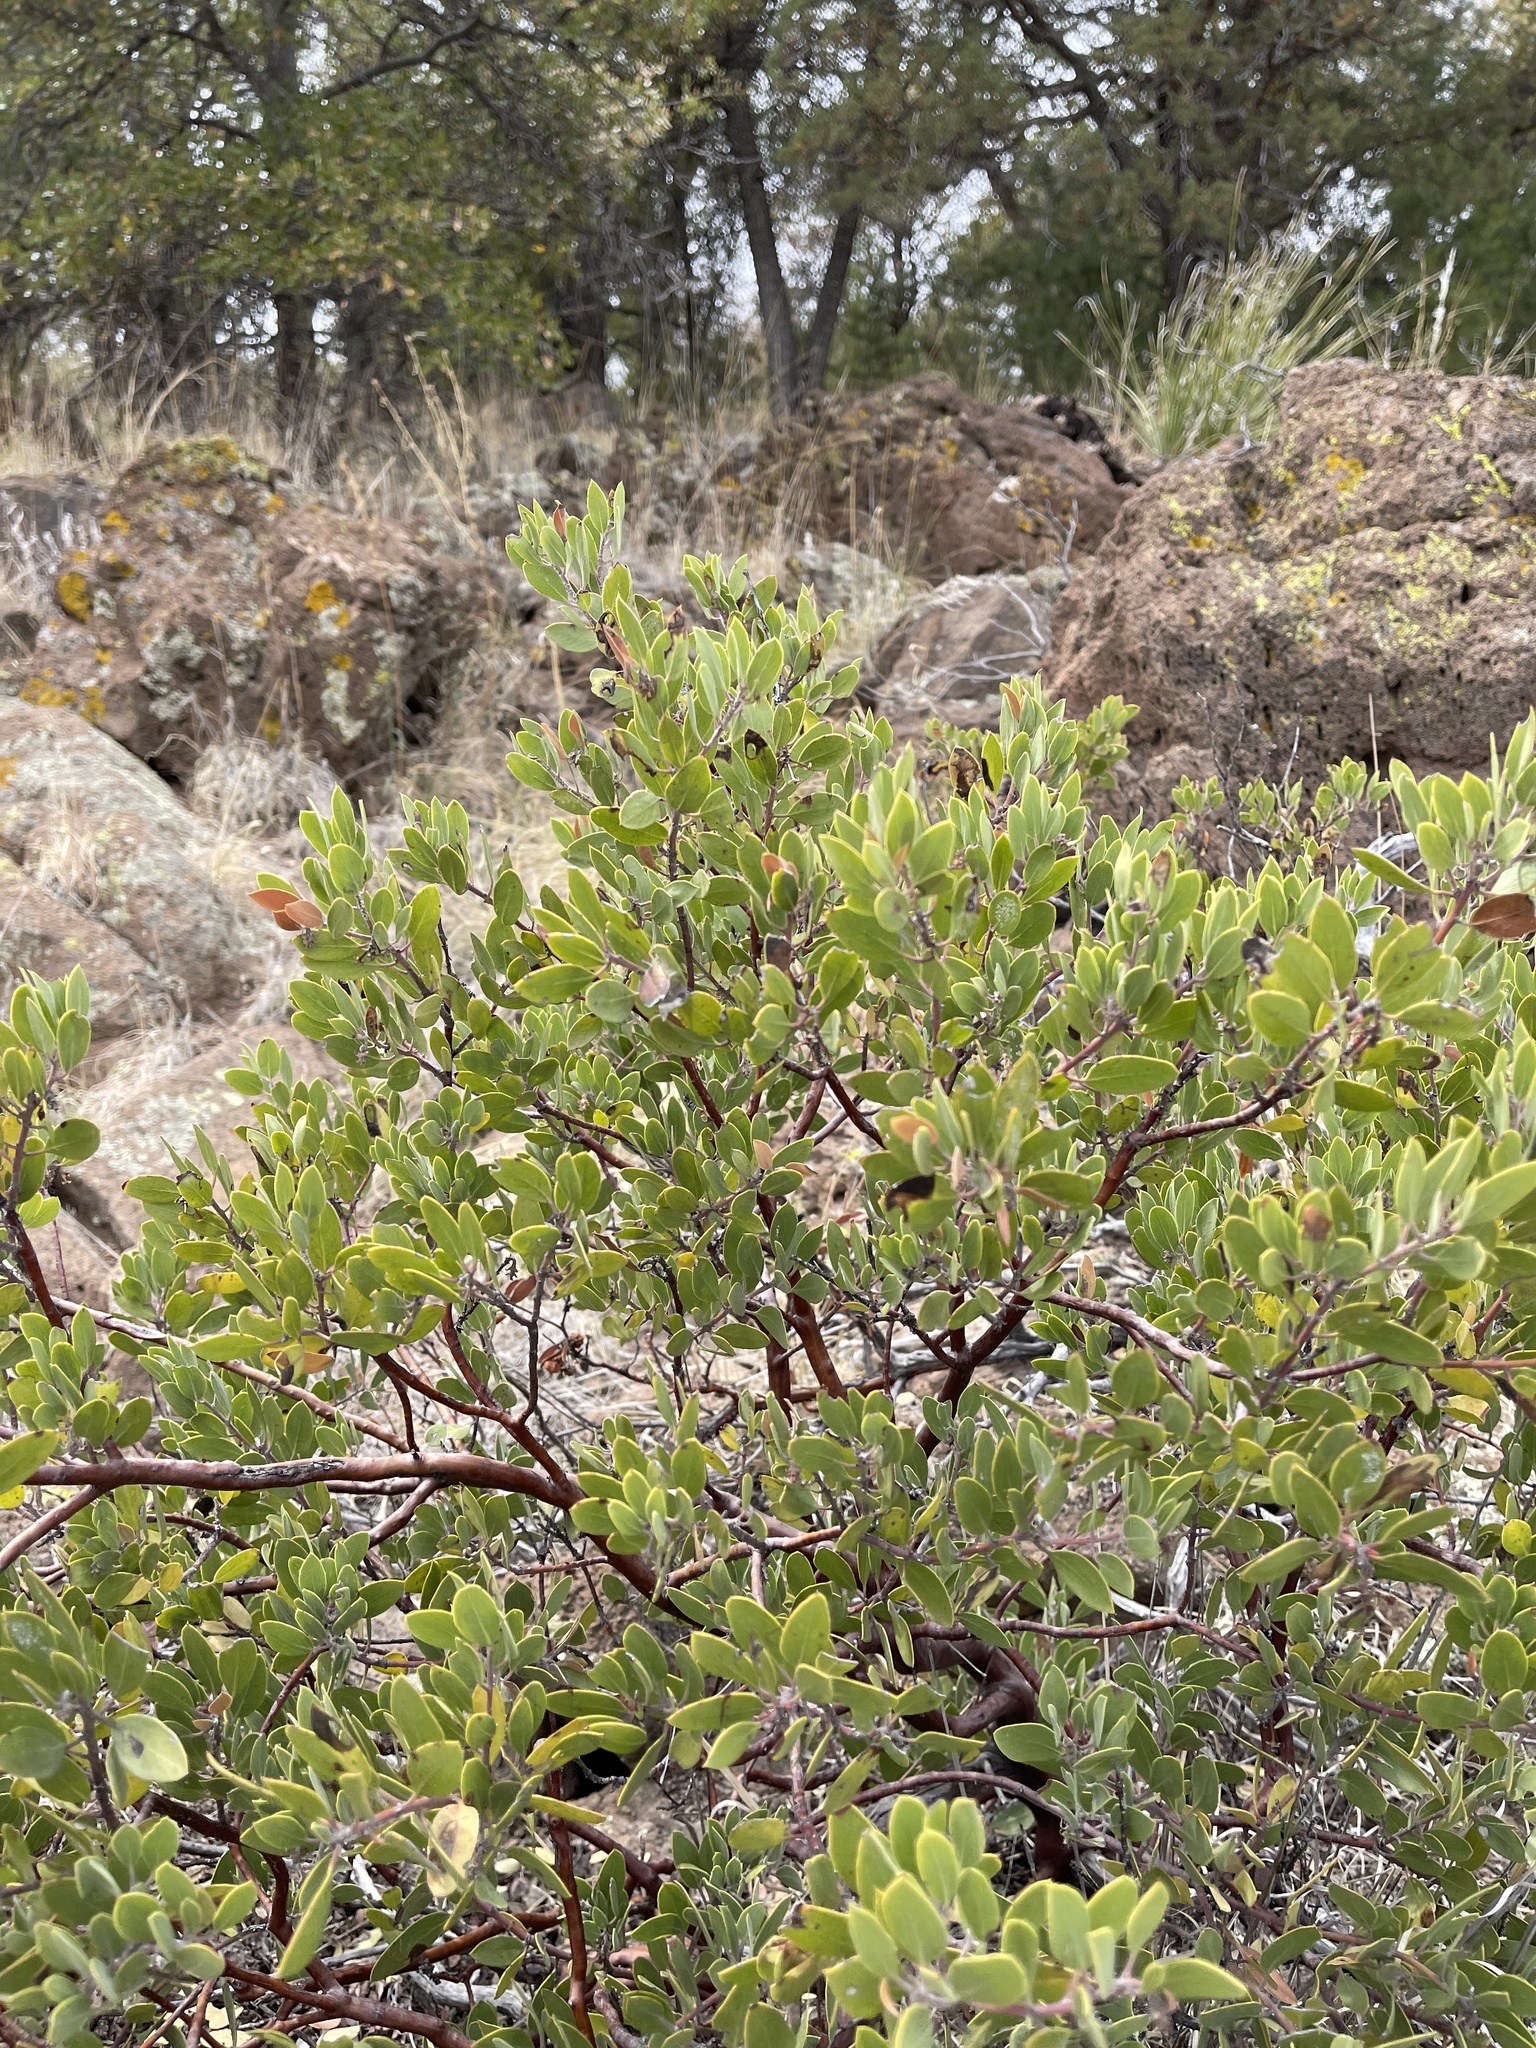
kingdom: Plantae
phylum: Tracheophyta
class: Magnoliopsida
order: Ericales
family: Ericaceae
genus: Arctostaphylos
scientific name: Arctostaphylos pungens
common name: Mexican manzanita
